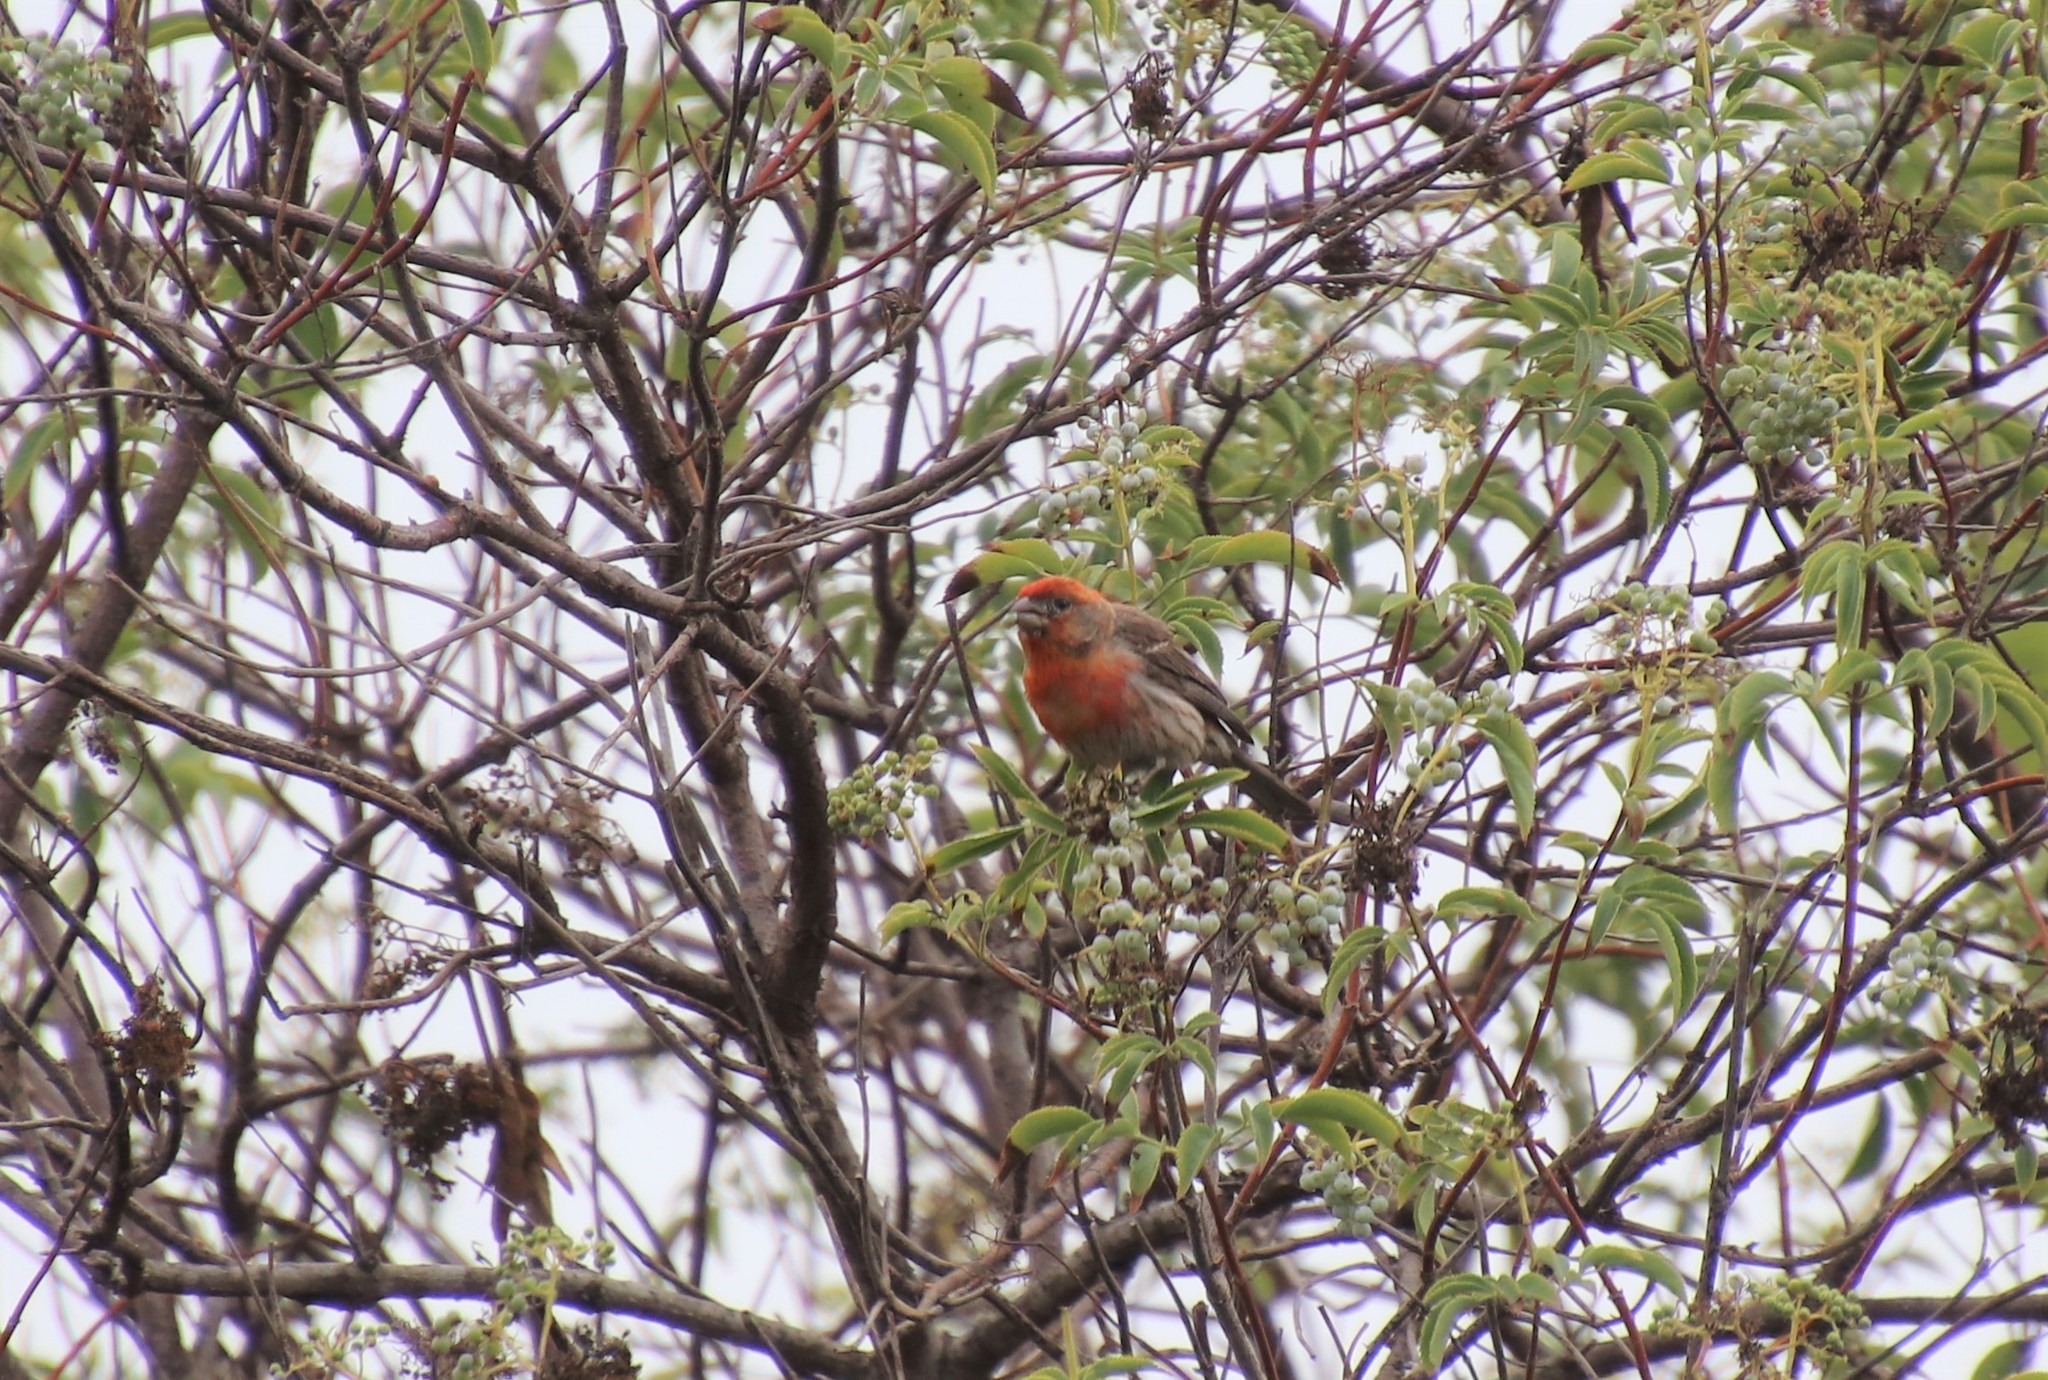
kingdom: Animalia
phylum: Chordata
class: Aves
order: Passeriformes
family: Fringillidae
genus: Haemorhous
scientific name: Haemorhous mexicanus
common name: House finch
